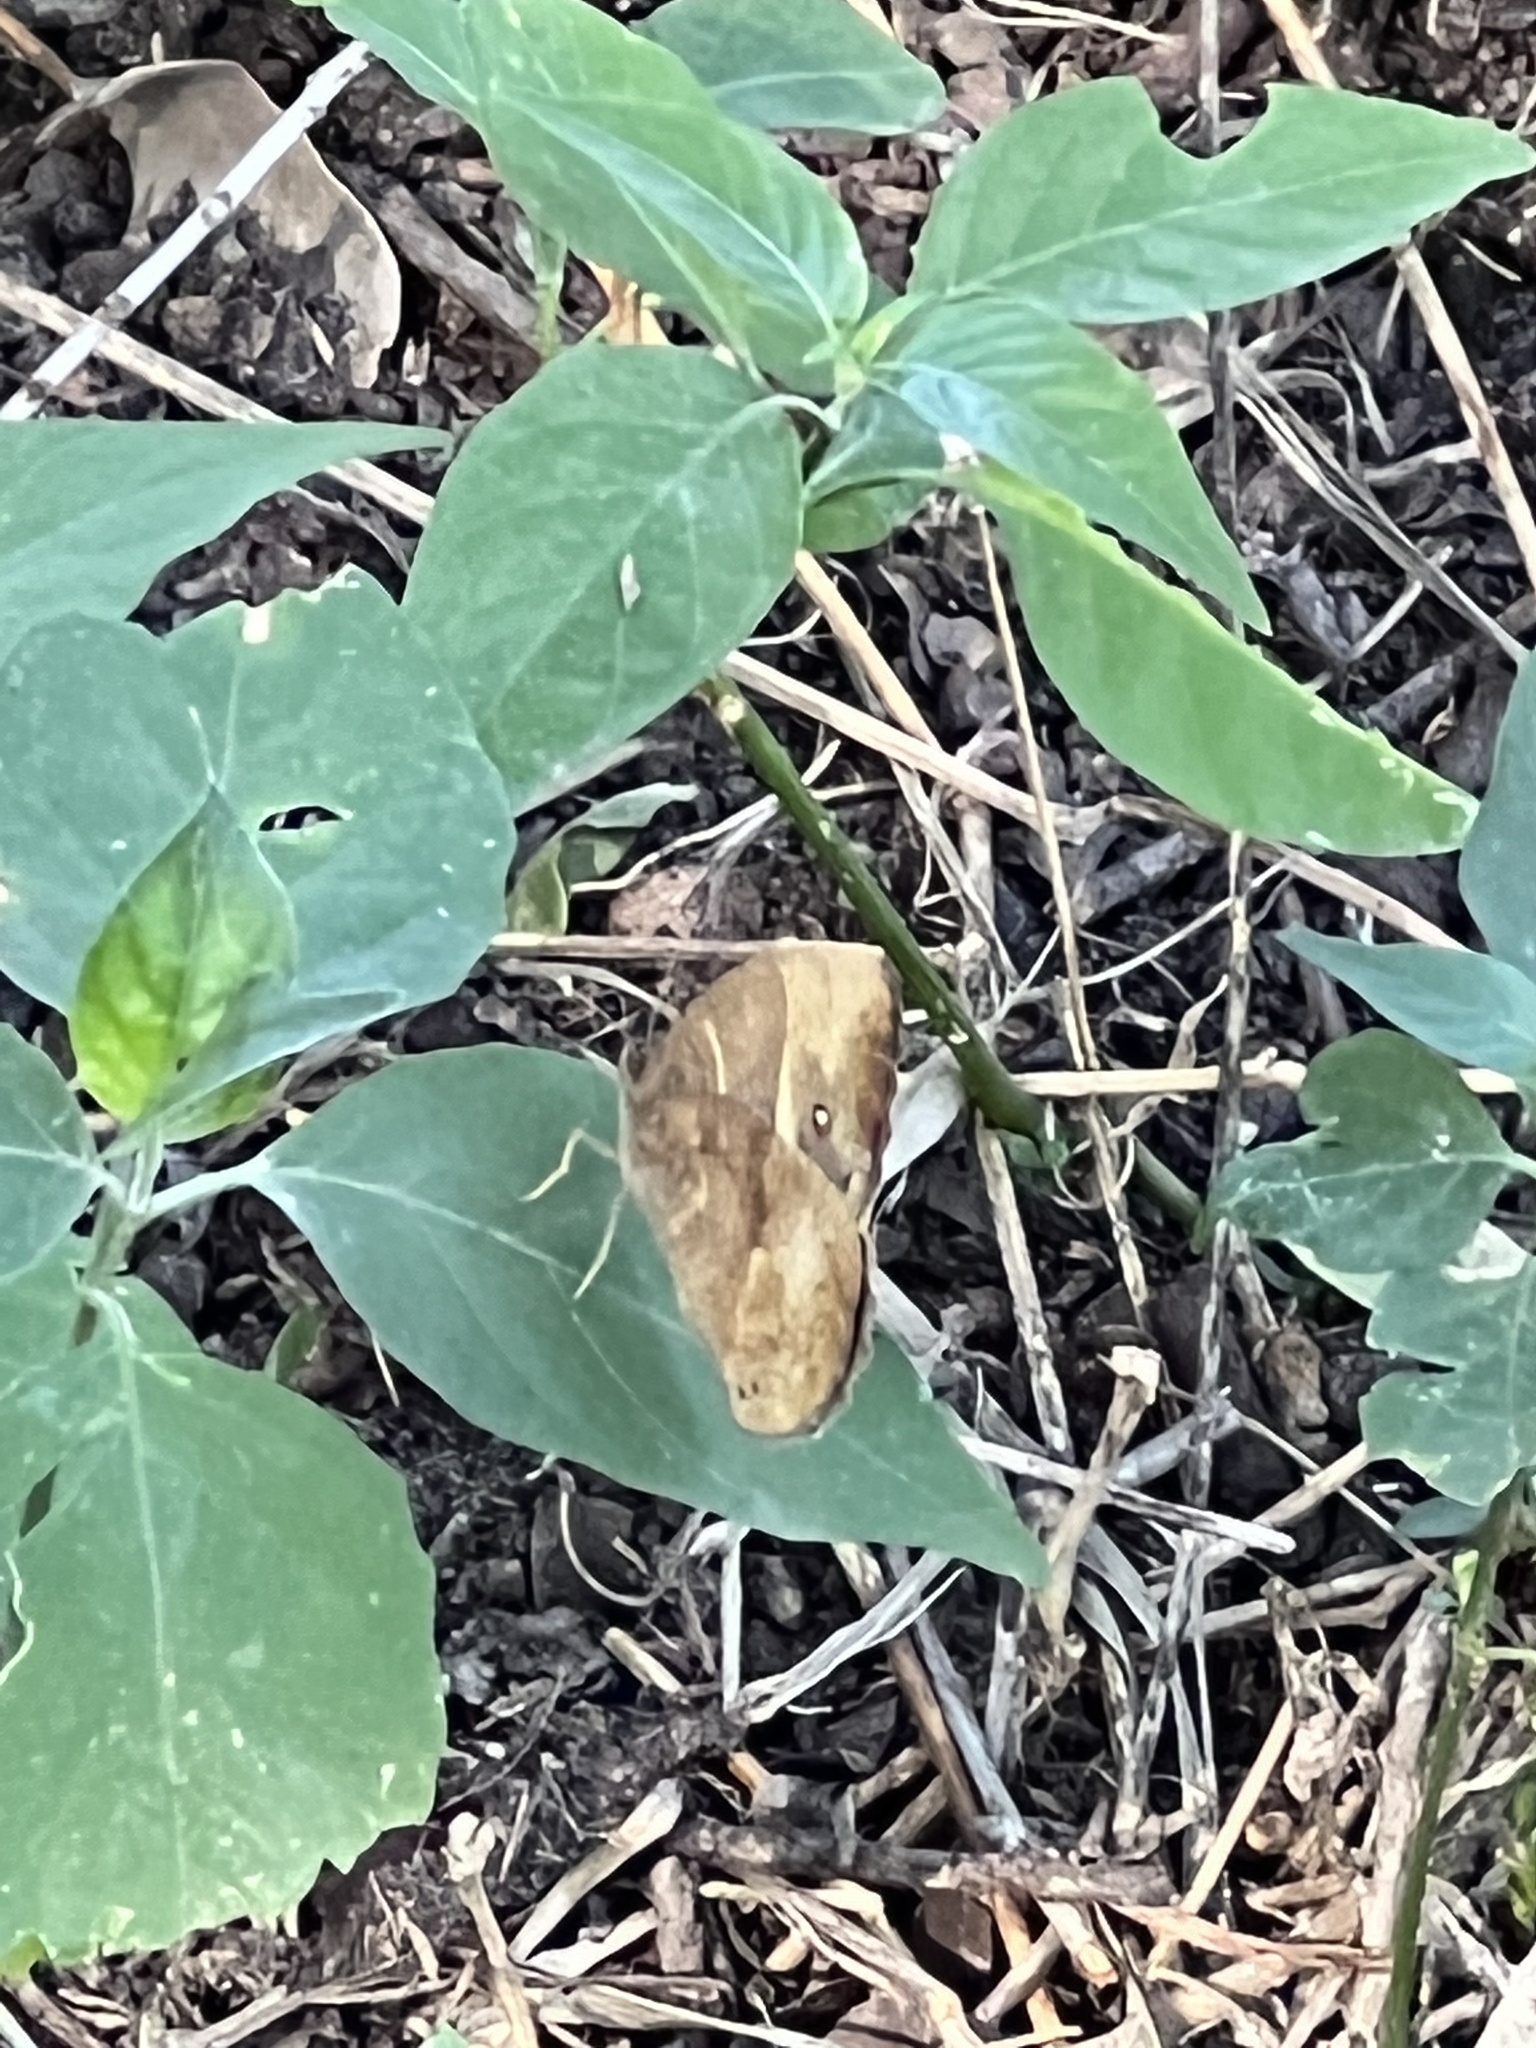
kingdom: Animalia
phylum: Arthropoda
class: Insecta
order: Lepidoptera
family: Nymphalidae
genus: Mycalesis
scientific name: Mycalesis anynana
